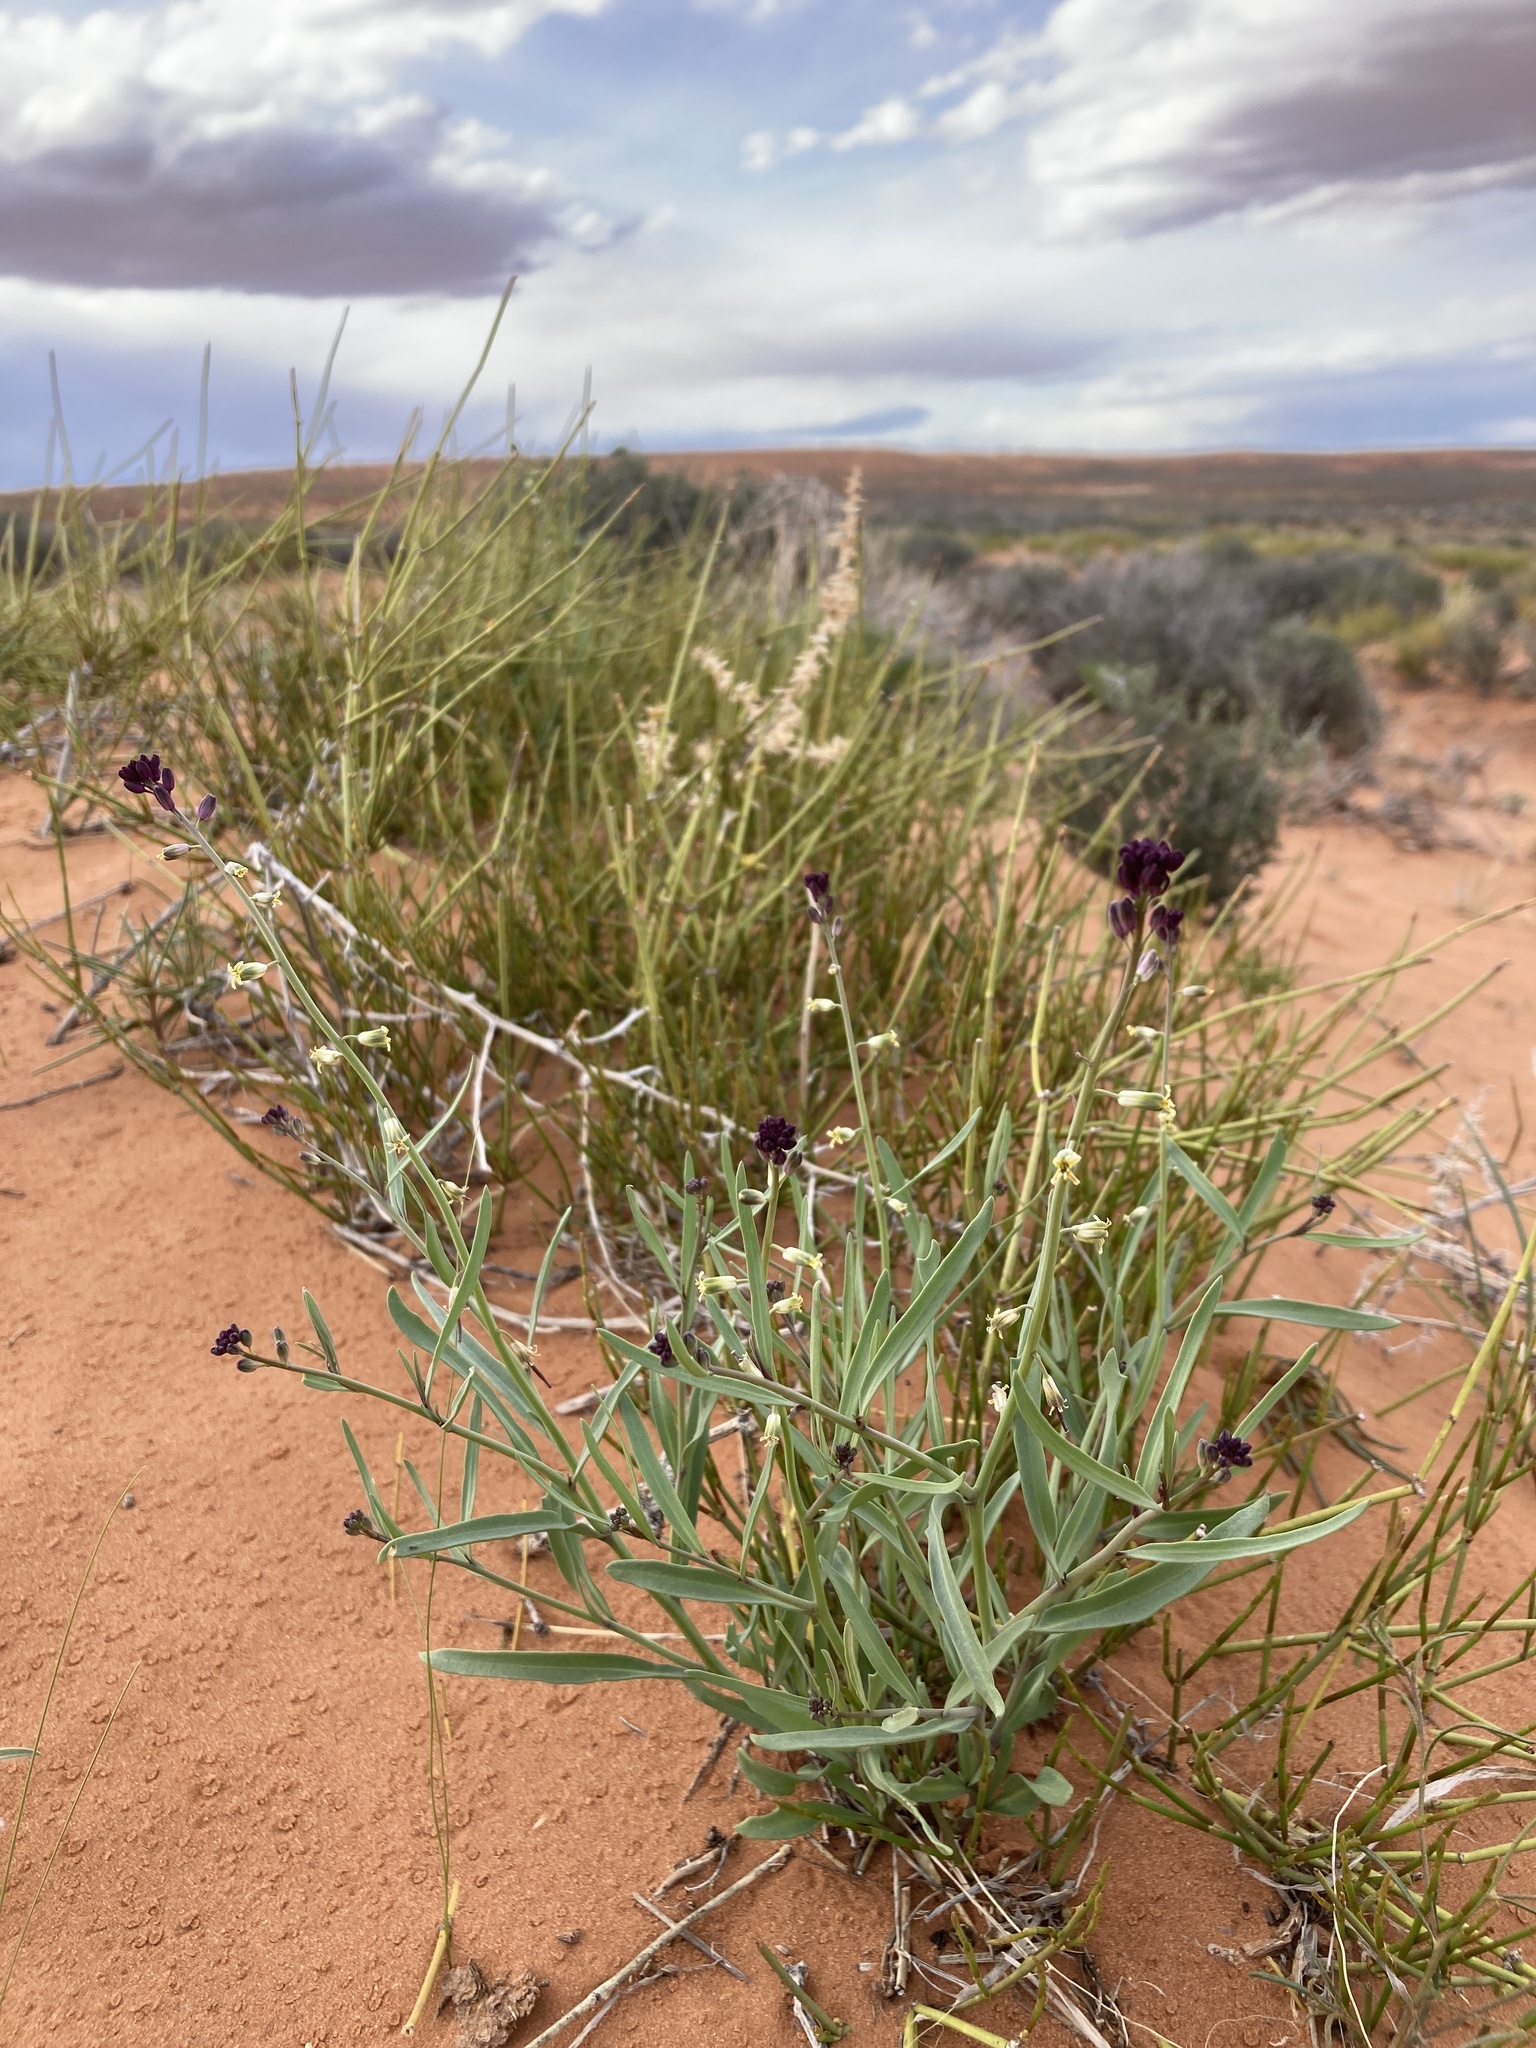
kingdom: Plantae
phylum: Tracheophyta
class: Magnoliopsida
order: Brassicales
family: Brassicaceae
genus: Streptanthus
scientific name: Streptanthus longirostris
